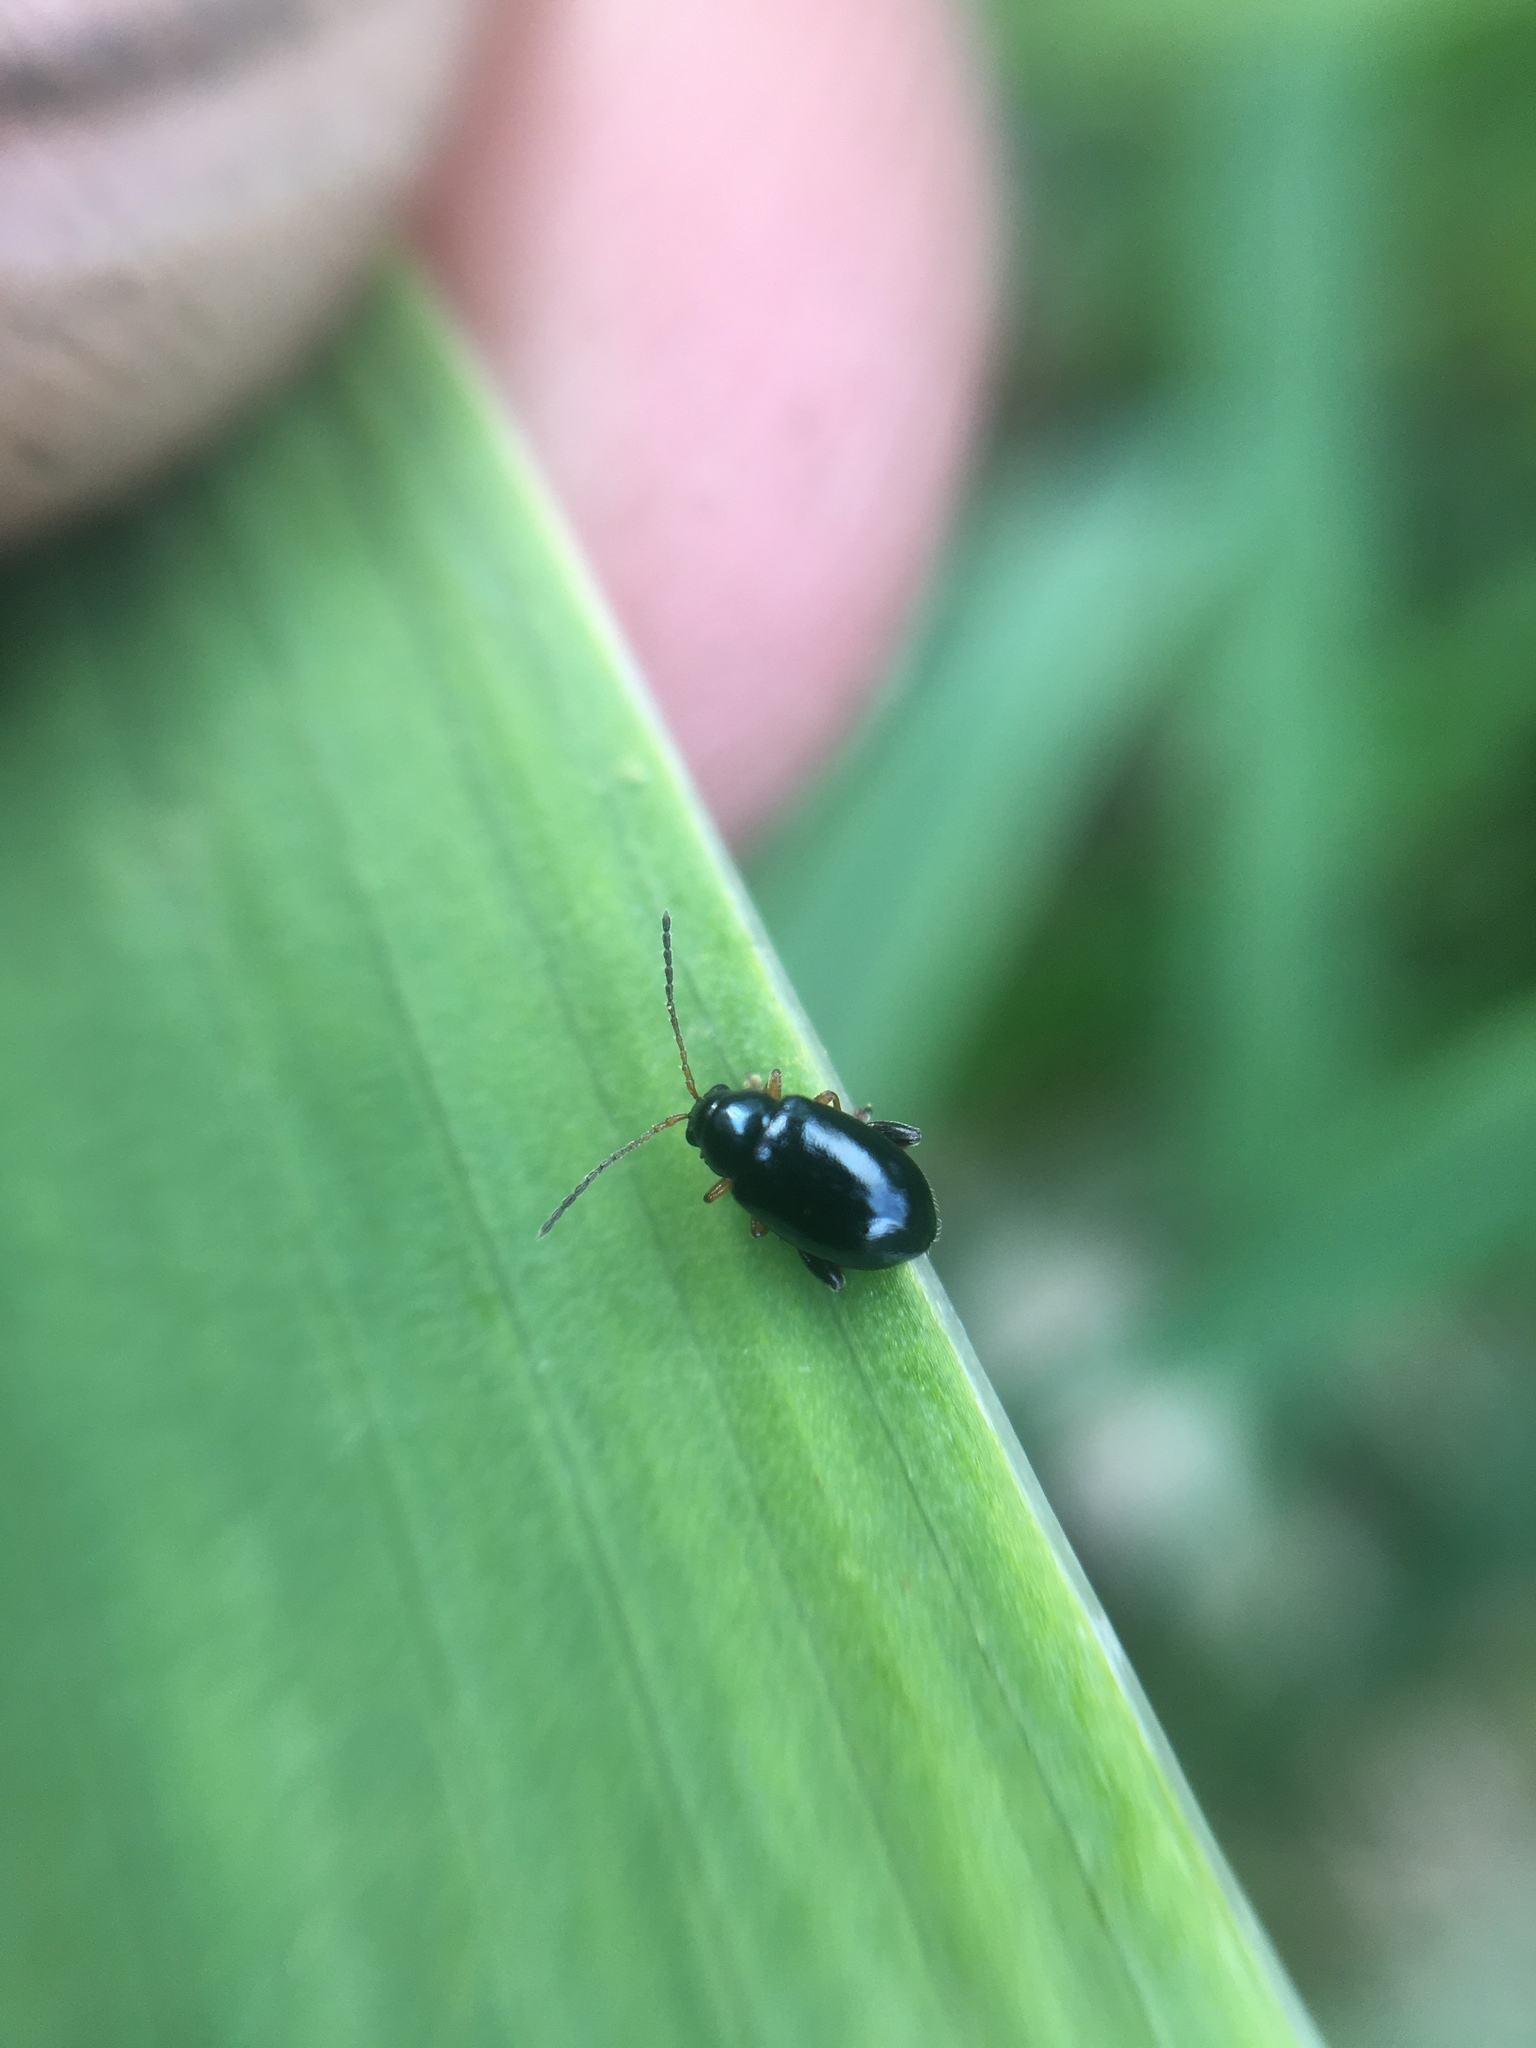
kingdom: Animalia
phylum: Arthropoda
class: Insecta
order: Coleoptera
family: Chrysomelidae
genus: Aphthona
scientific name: Aphthona nonstriata
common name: Iris flea beetle
